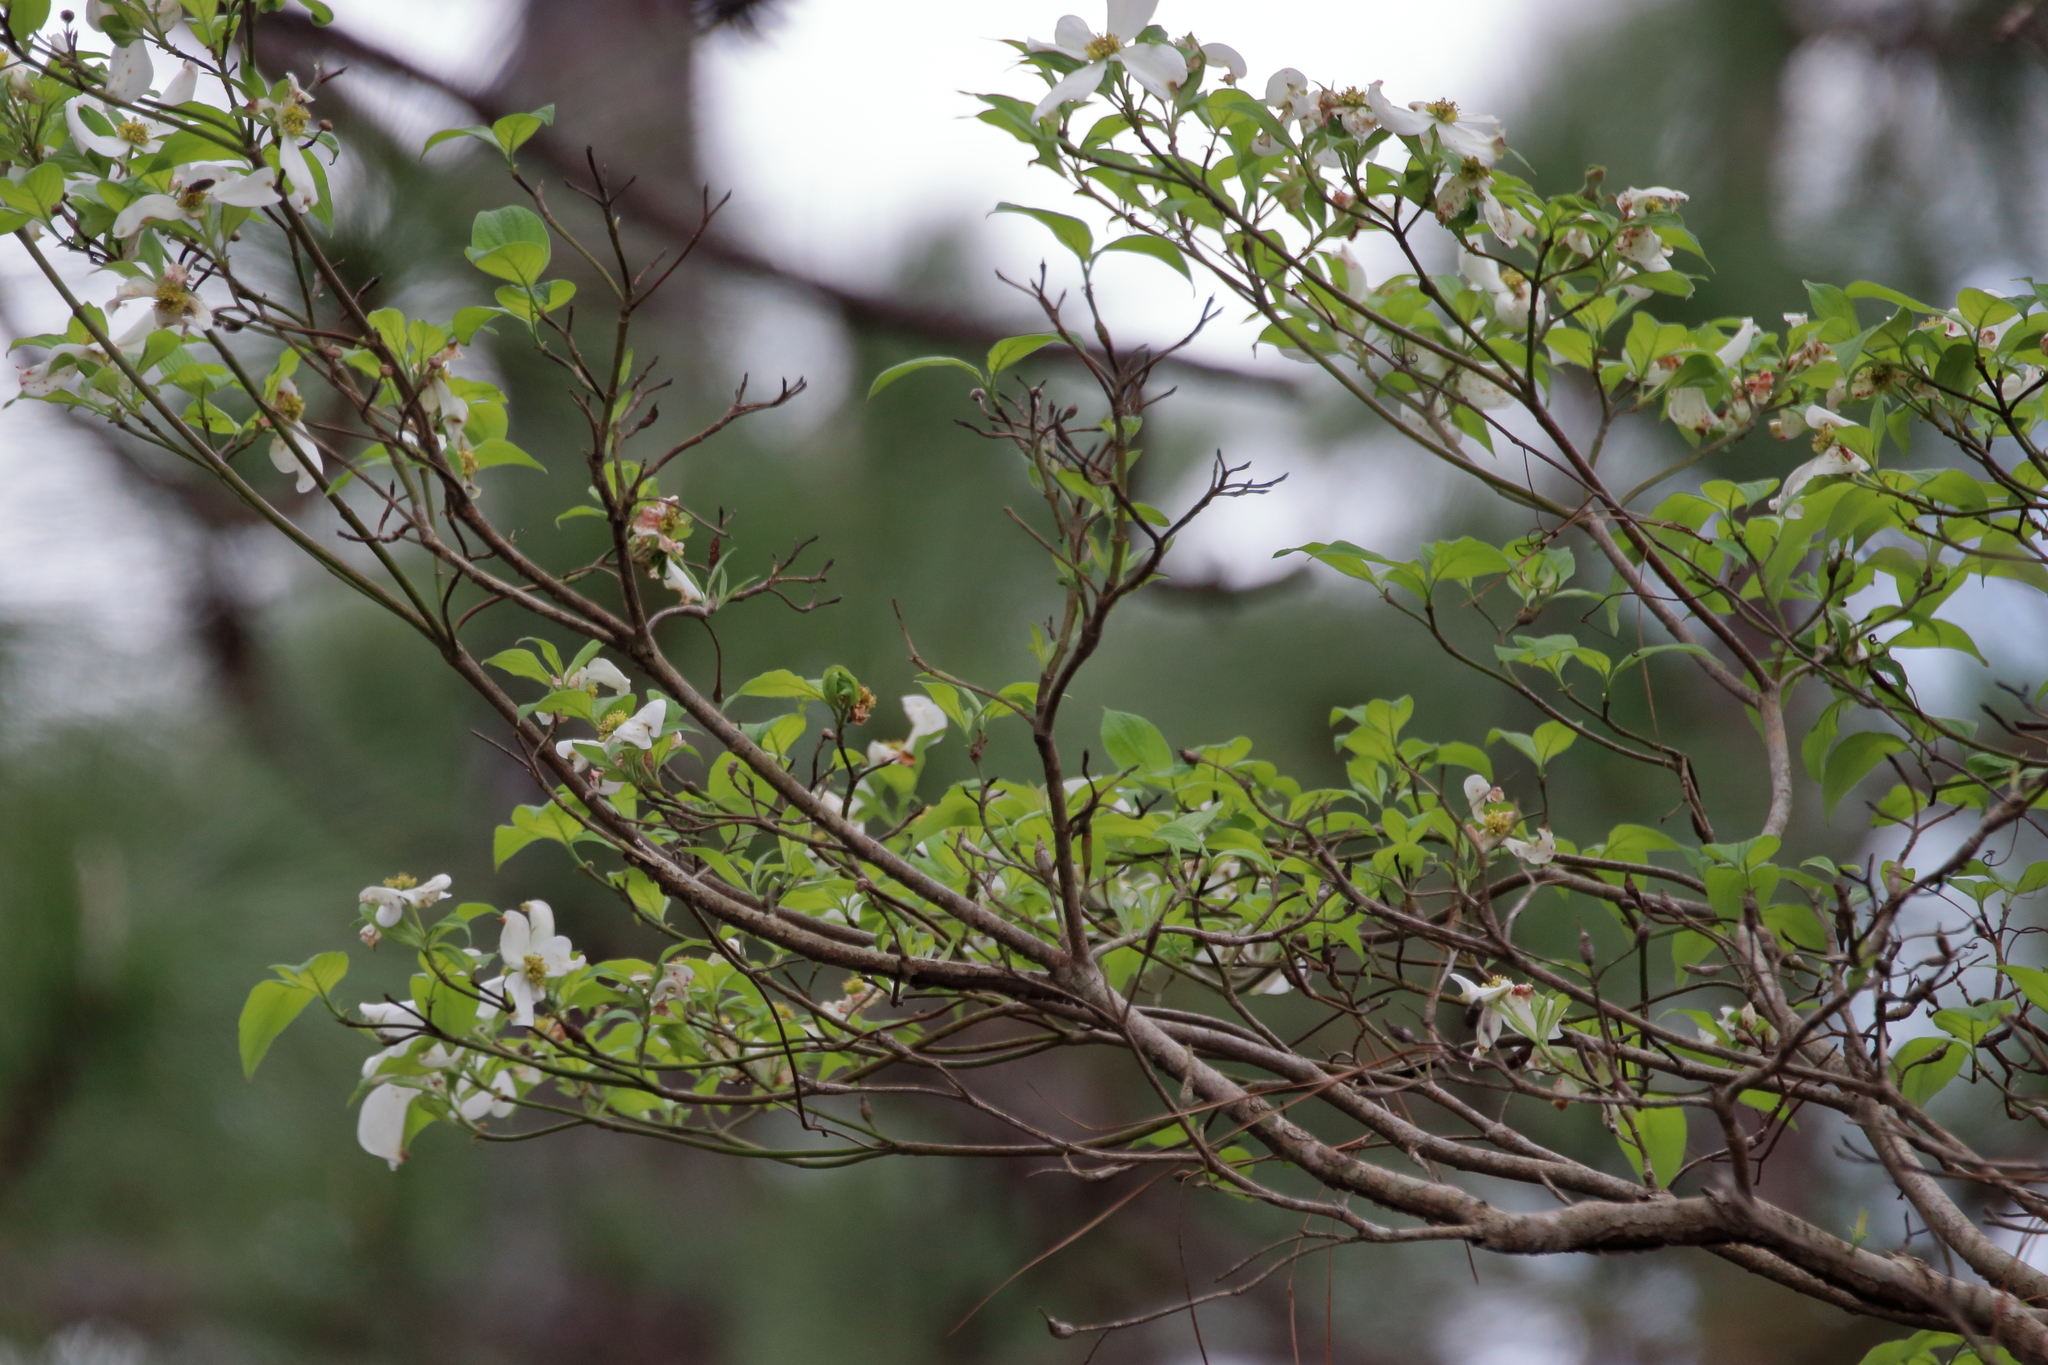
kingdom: Plantae
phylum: Tracheophyta
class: Magnoliopsida
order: Cornales
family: Cornaceae
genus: Cornus
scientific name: Cornus florida
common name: Flowering dogwood
